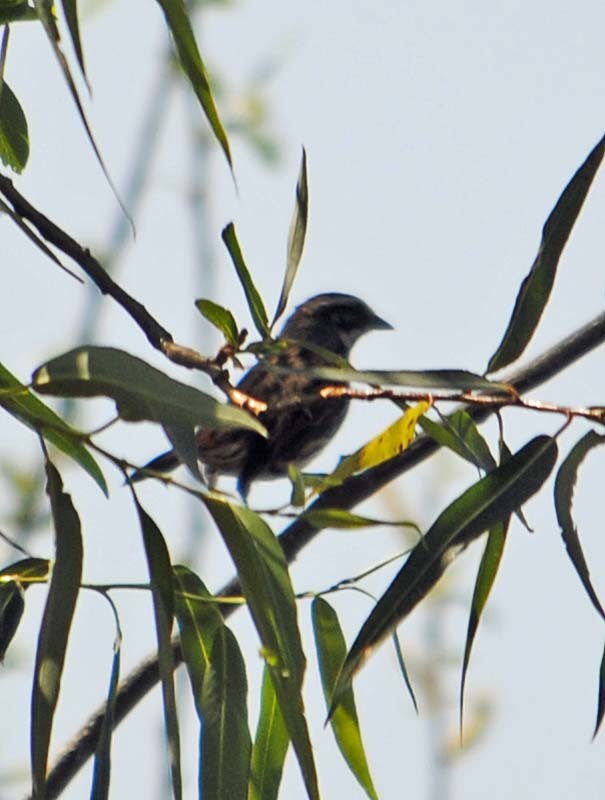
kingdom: Animalia
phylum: Chordata
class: Aves
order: Passeriformes
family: Passerellidae
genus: Melospiza
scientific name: Melospiza melodia
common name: Song sparrow
